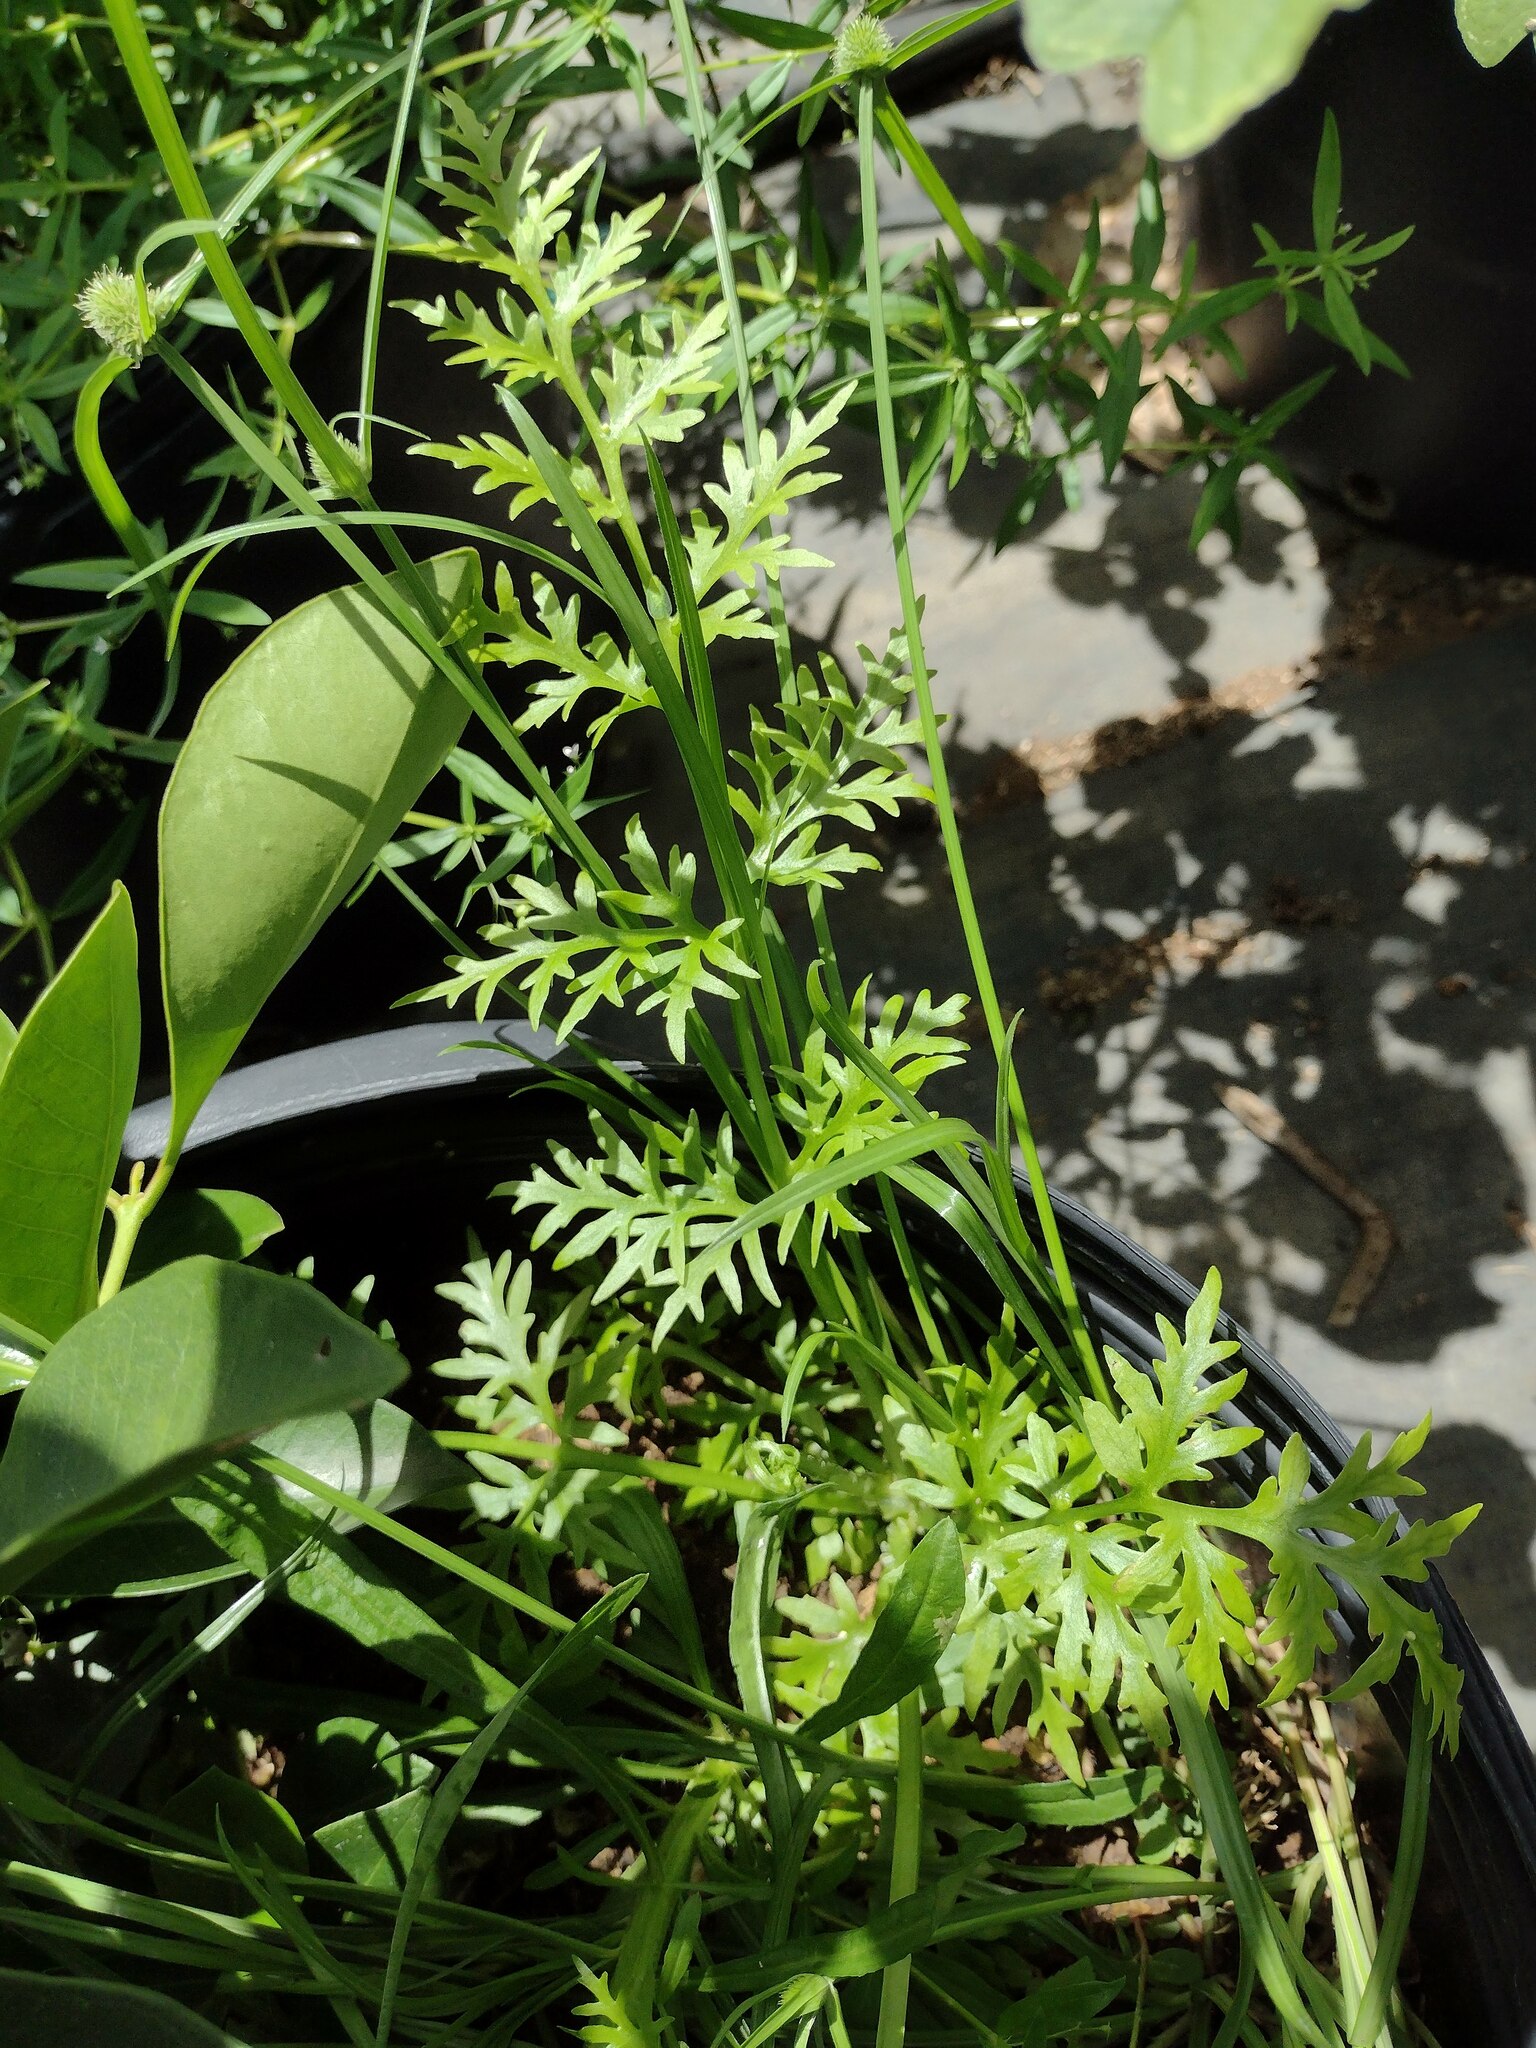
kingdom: Plantae
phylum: Tracheophyta
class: Polypodiopsida
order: Polypodiales
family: Pteridaceae
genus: Ceratopteris
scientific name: Ceratopteris thalictroides
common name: Water fern
